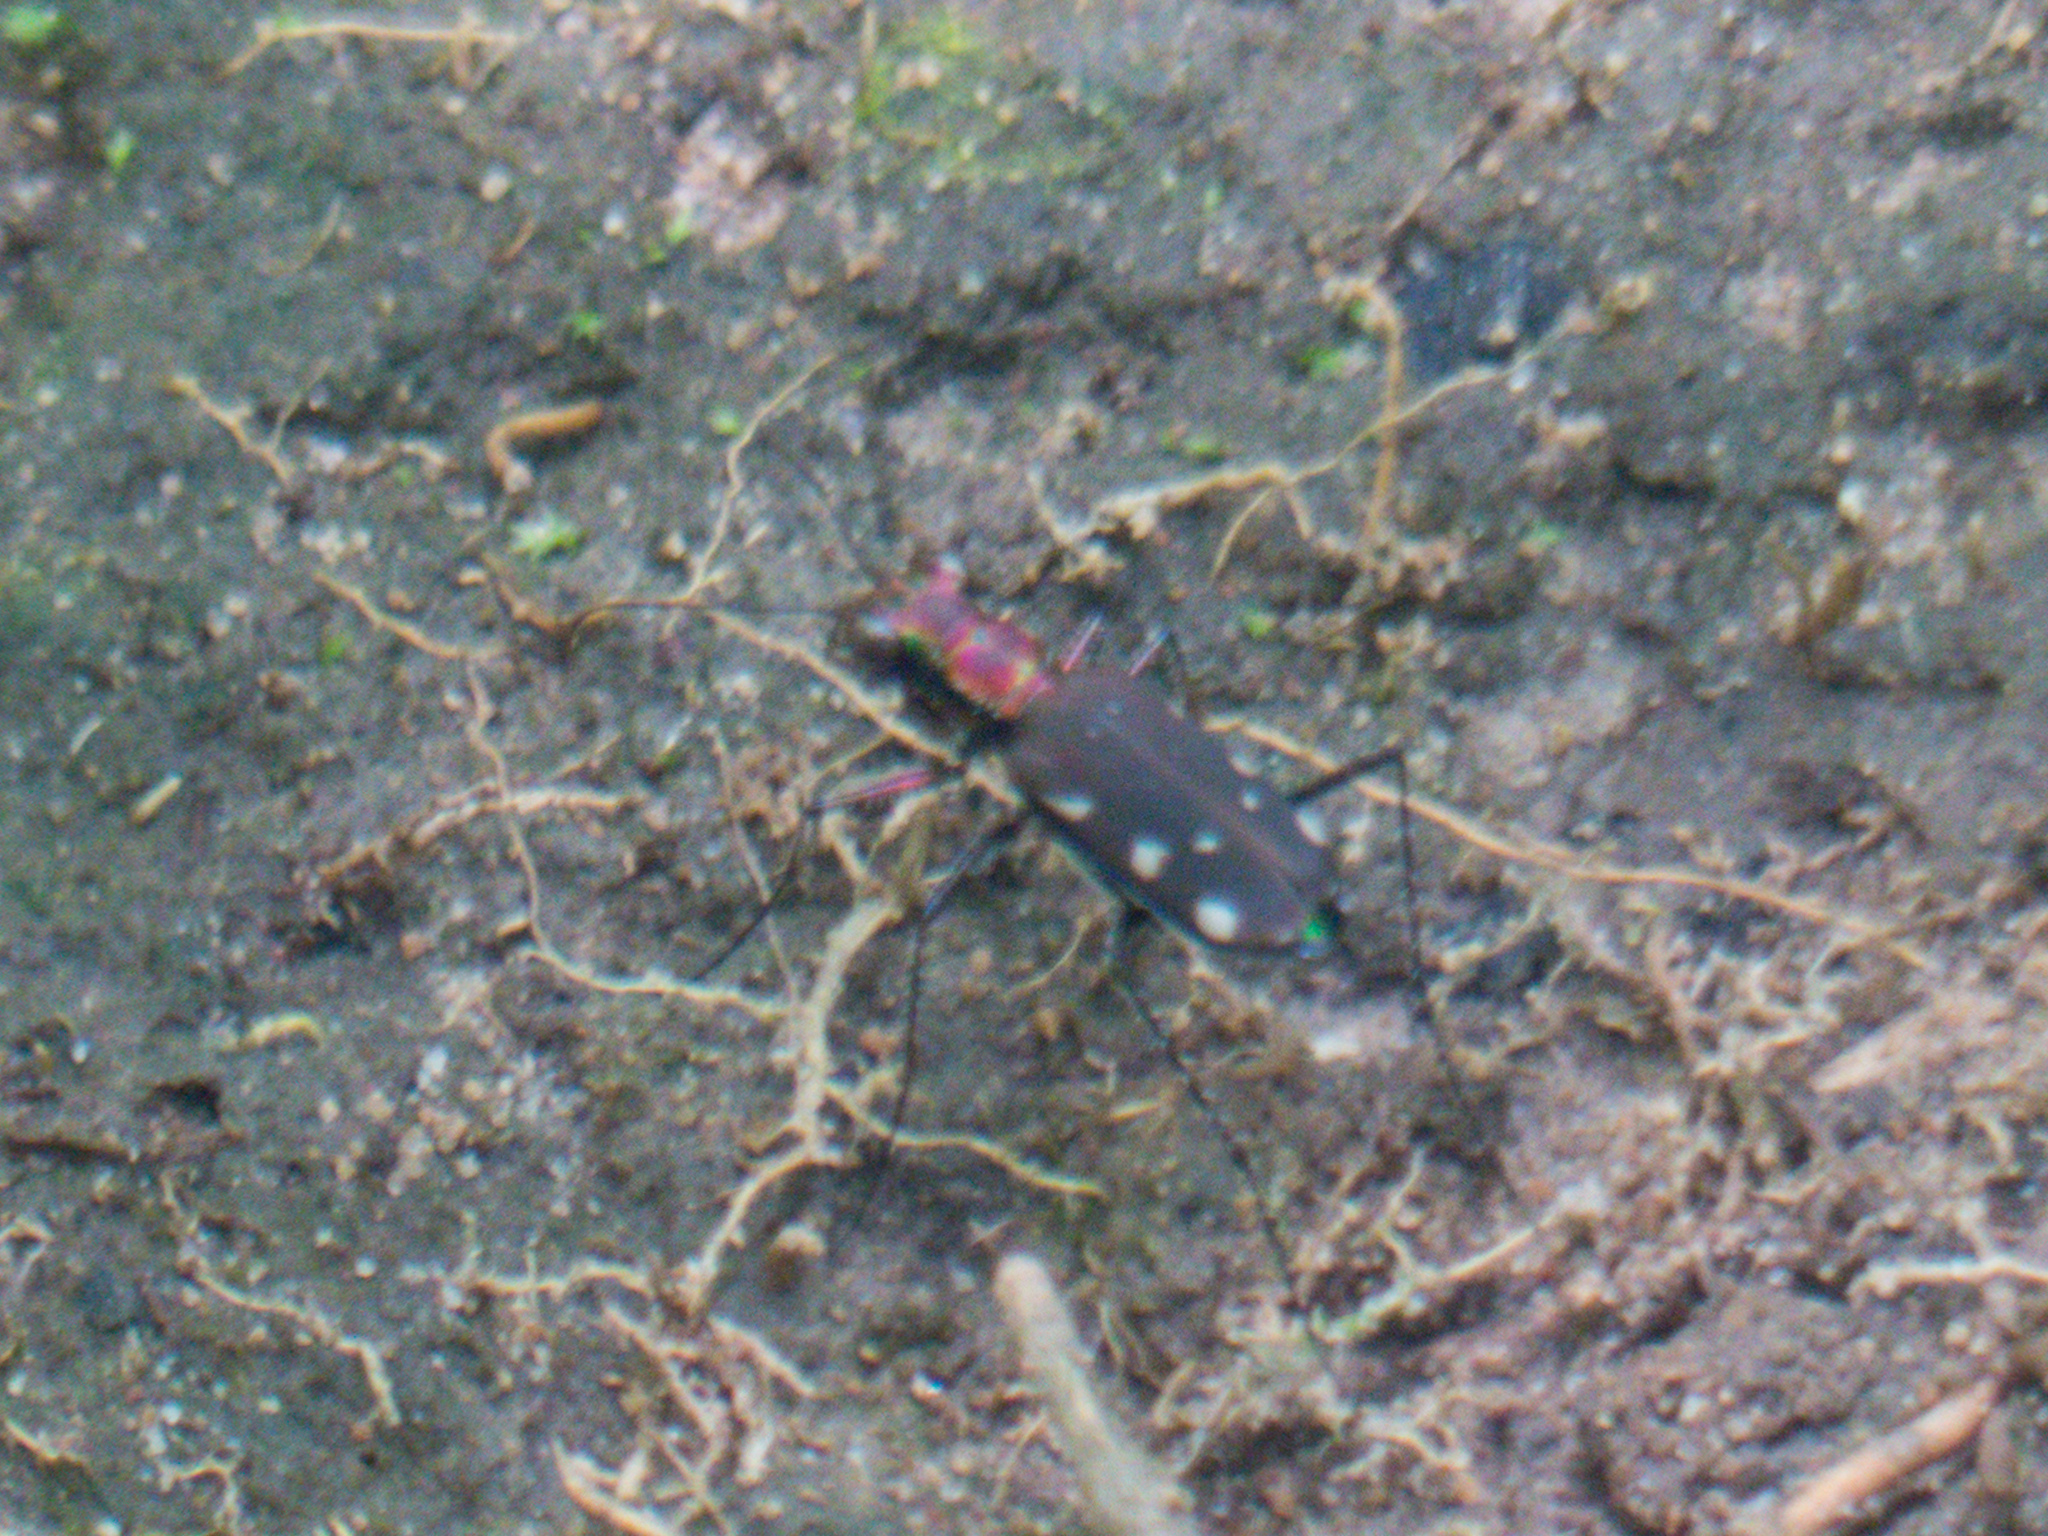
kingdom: Animalia
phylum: Arthropoda
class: Insecta
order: Coleoptera
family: Carabidae
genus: Lophyra
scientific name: Lophyra lineifrons
